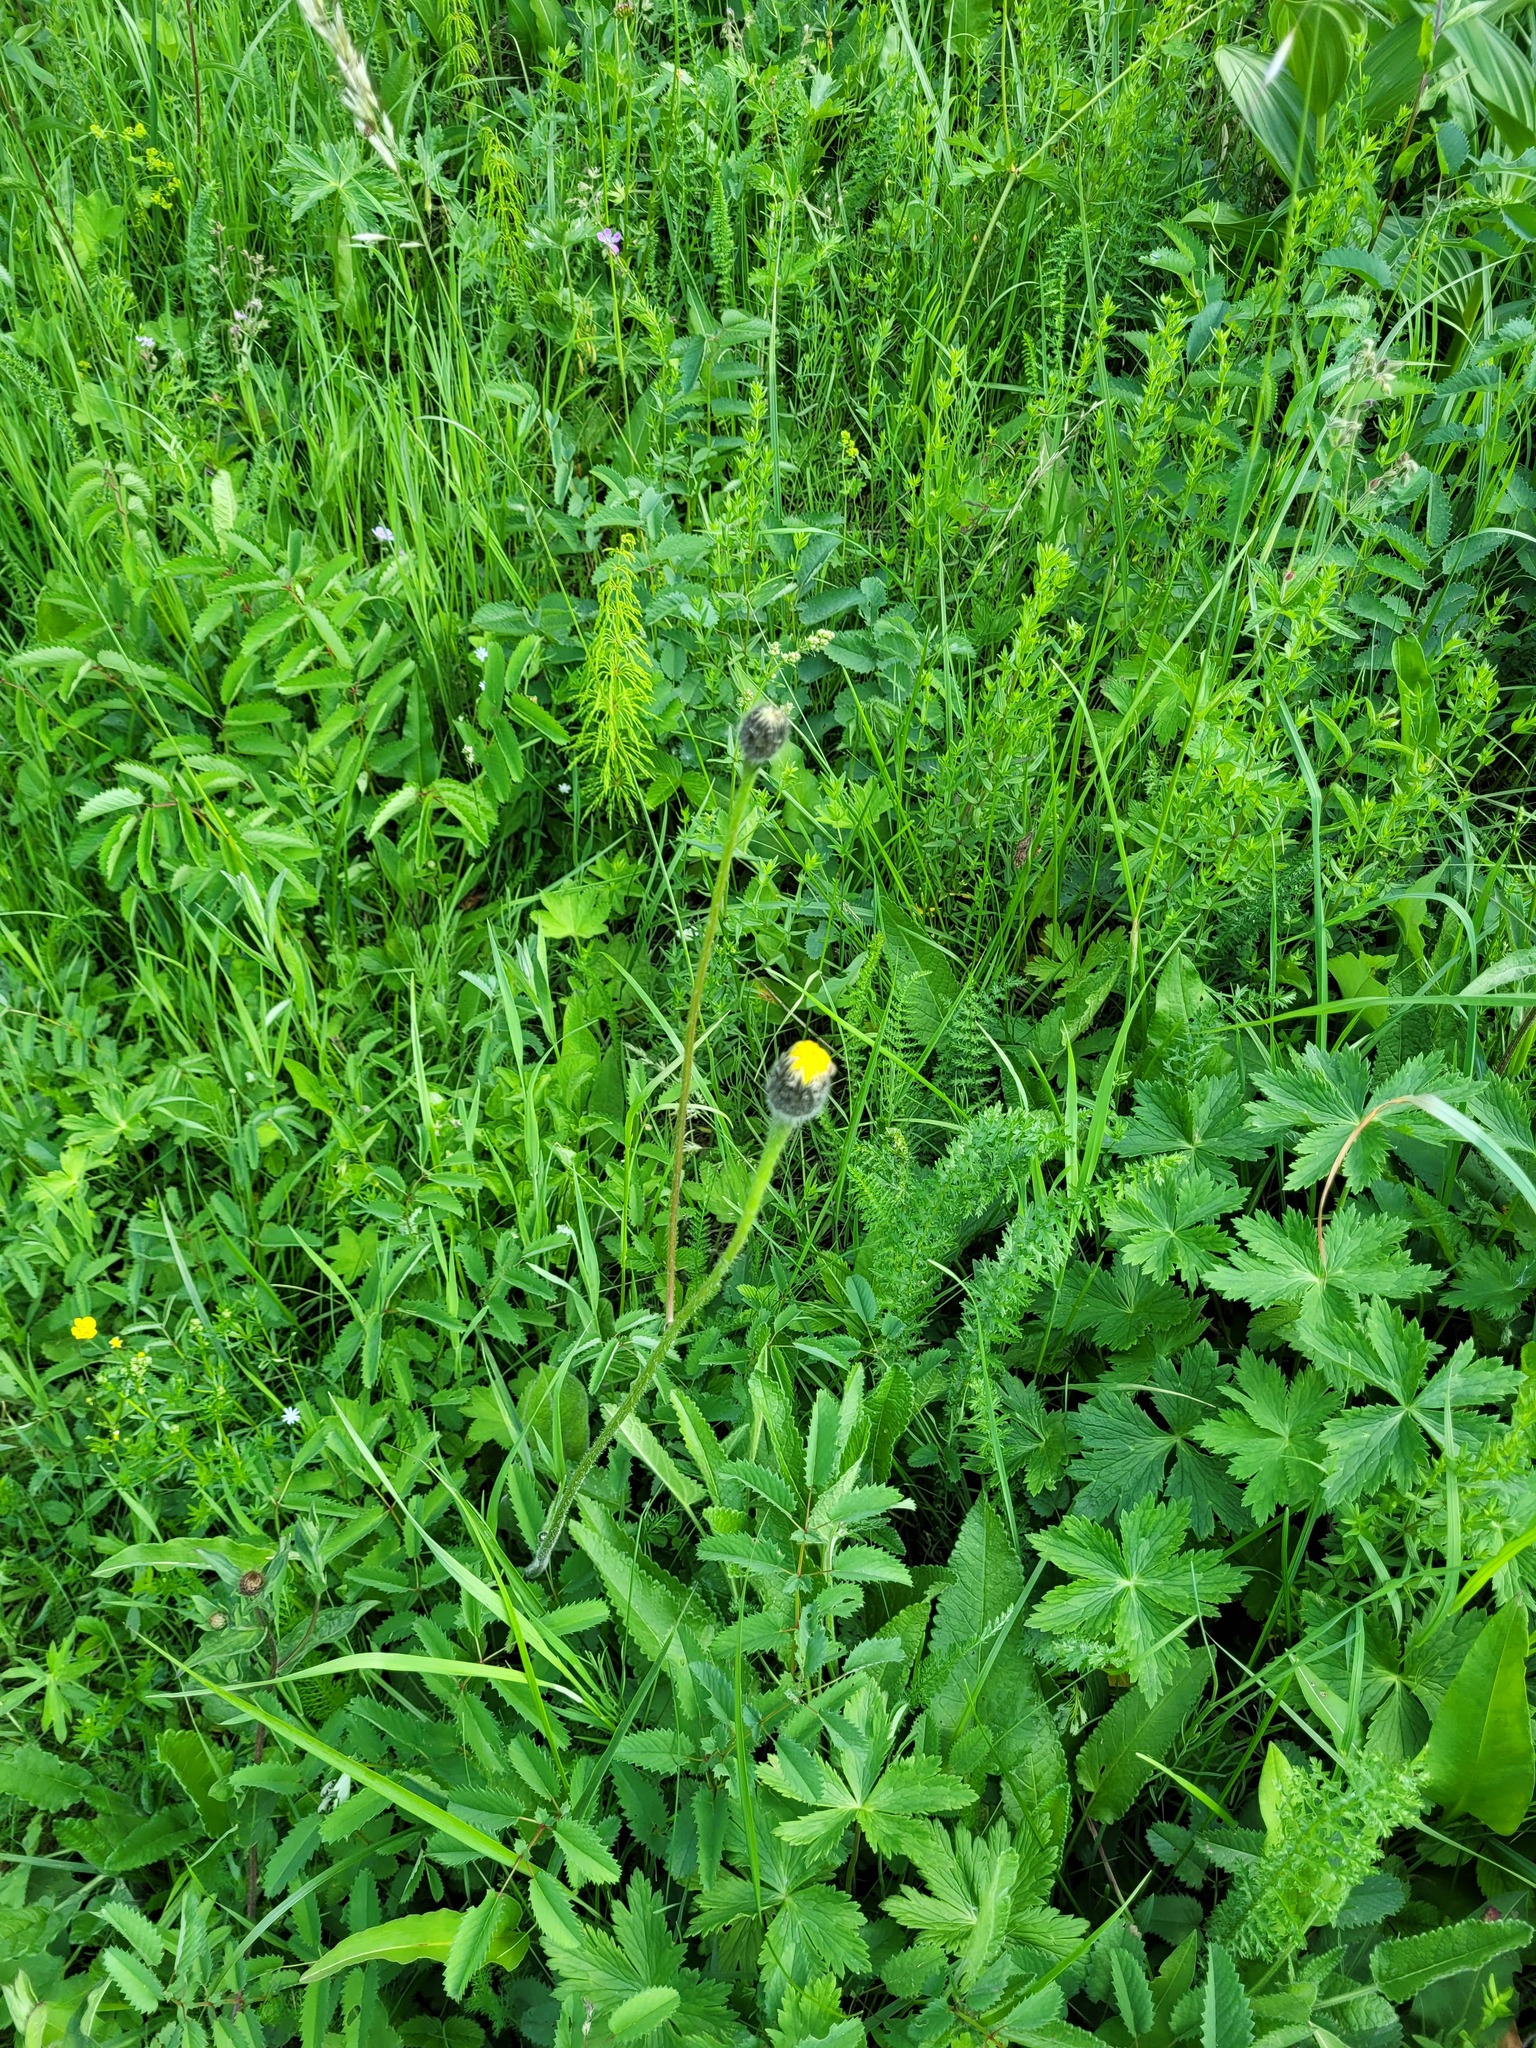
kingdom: Plantae
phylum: Tracheophyta
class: Magnoliopsida
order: Asterales
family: Asteraceae
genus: Trommsdorffia
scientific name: Trommsdorffia maculata
